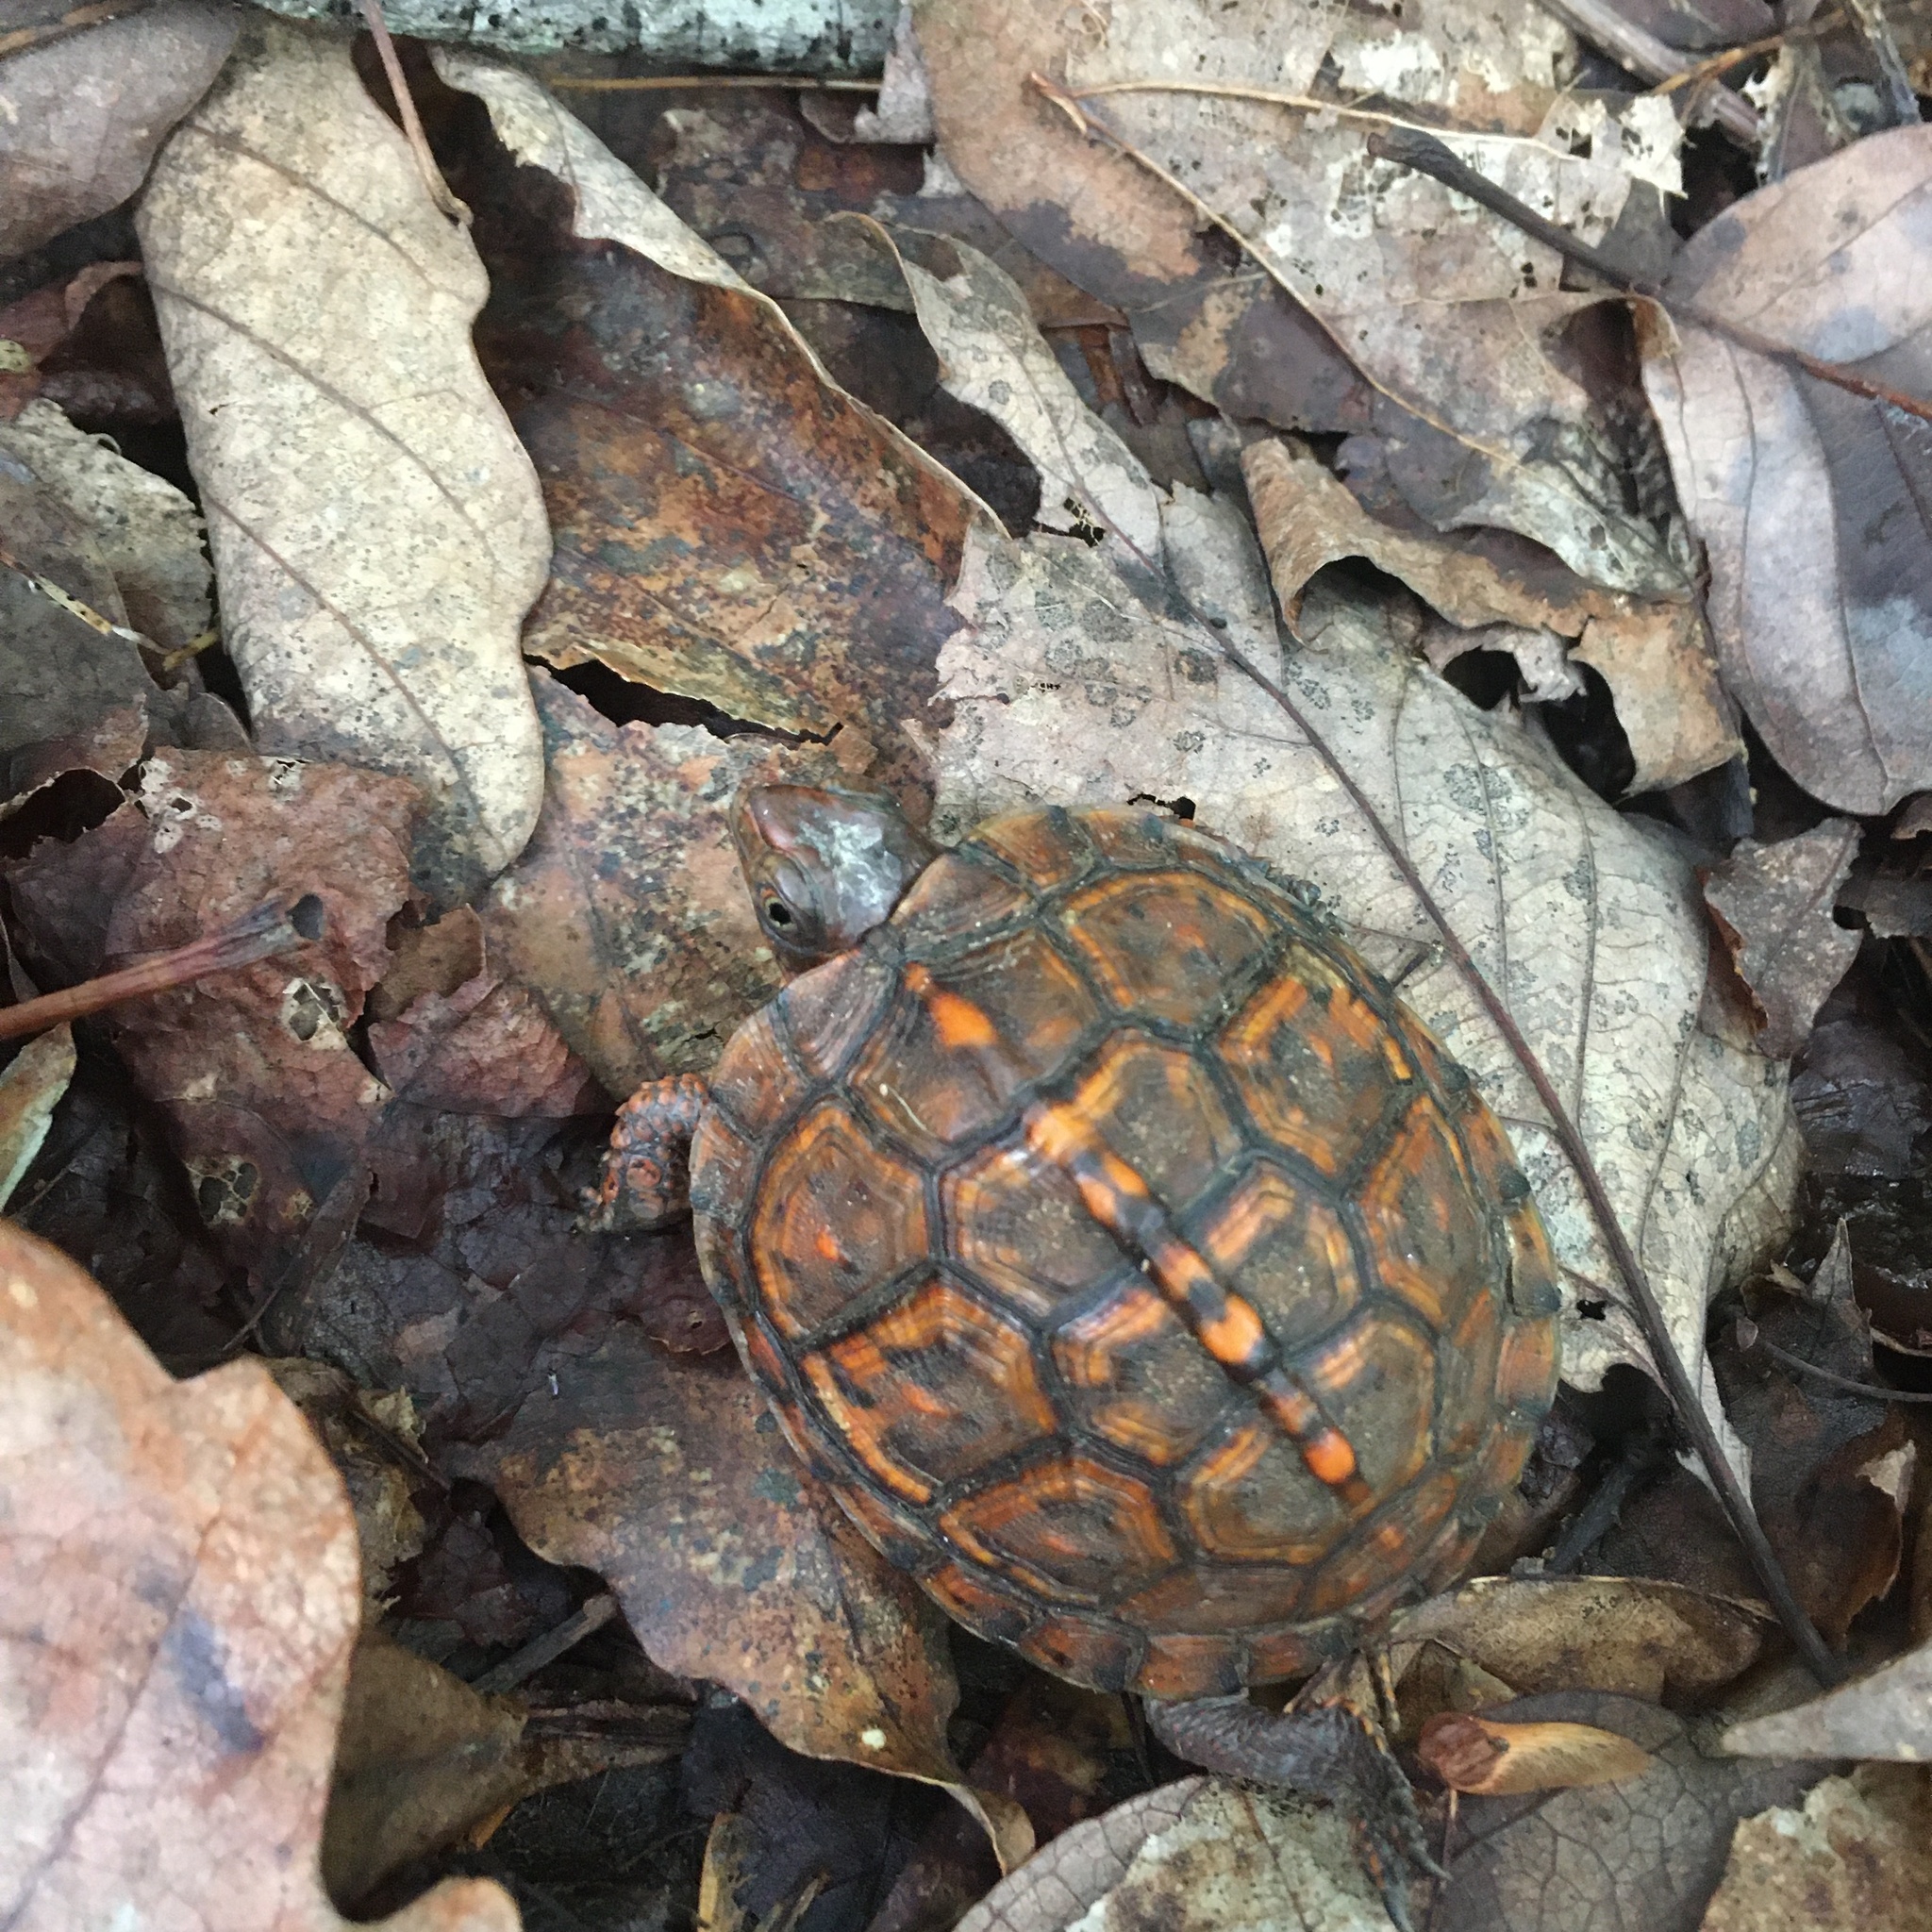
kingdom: Animalia
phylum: Chordata
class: Testudines
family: Emydidae
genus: Terrapene
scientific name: Terrapene carolina
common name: Common box turtle
